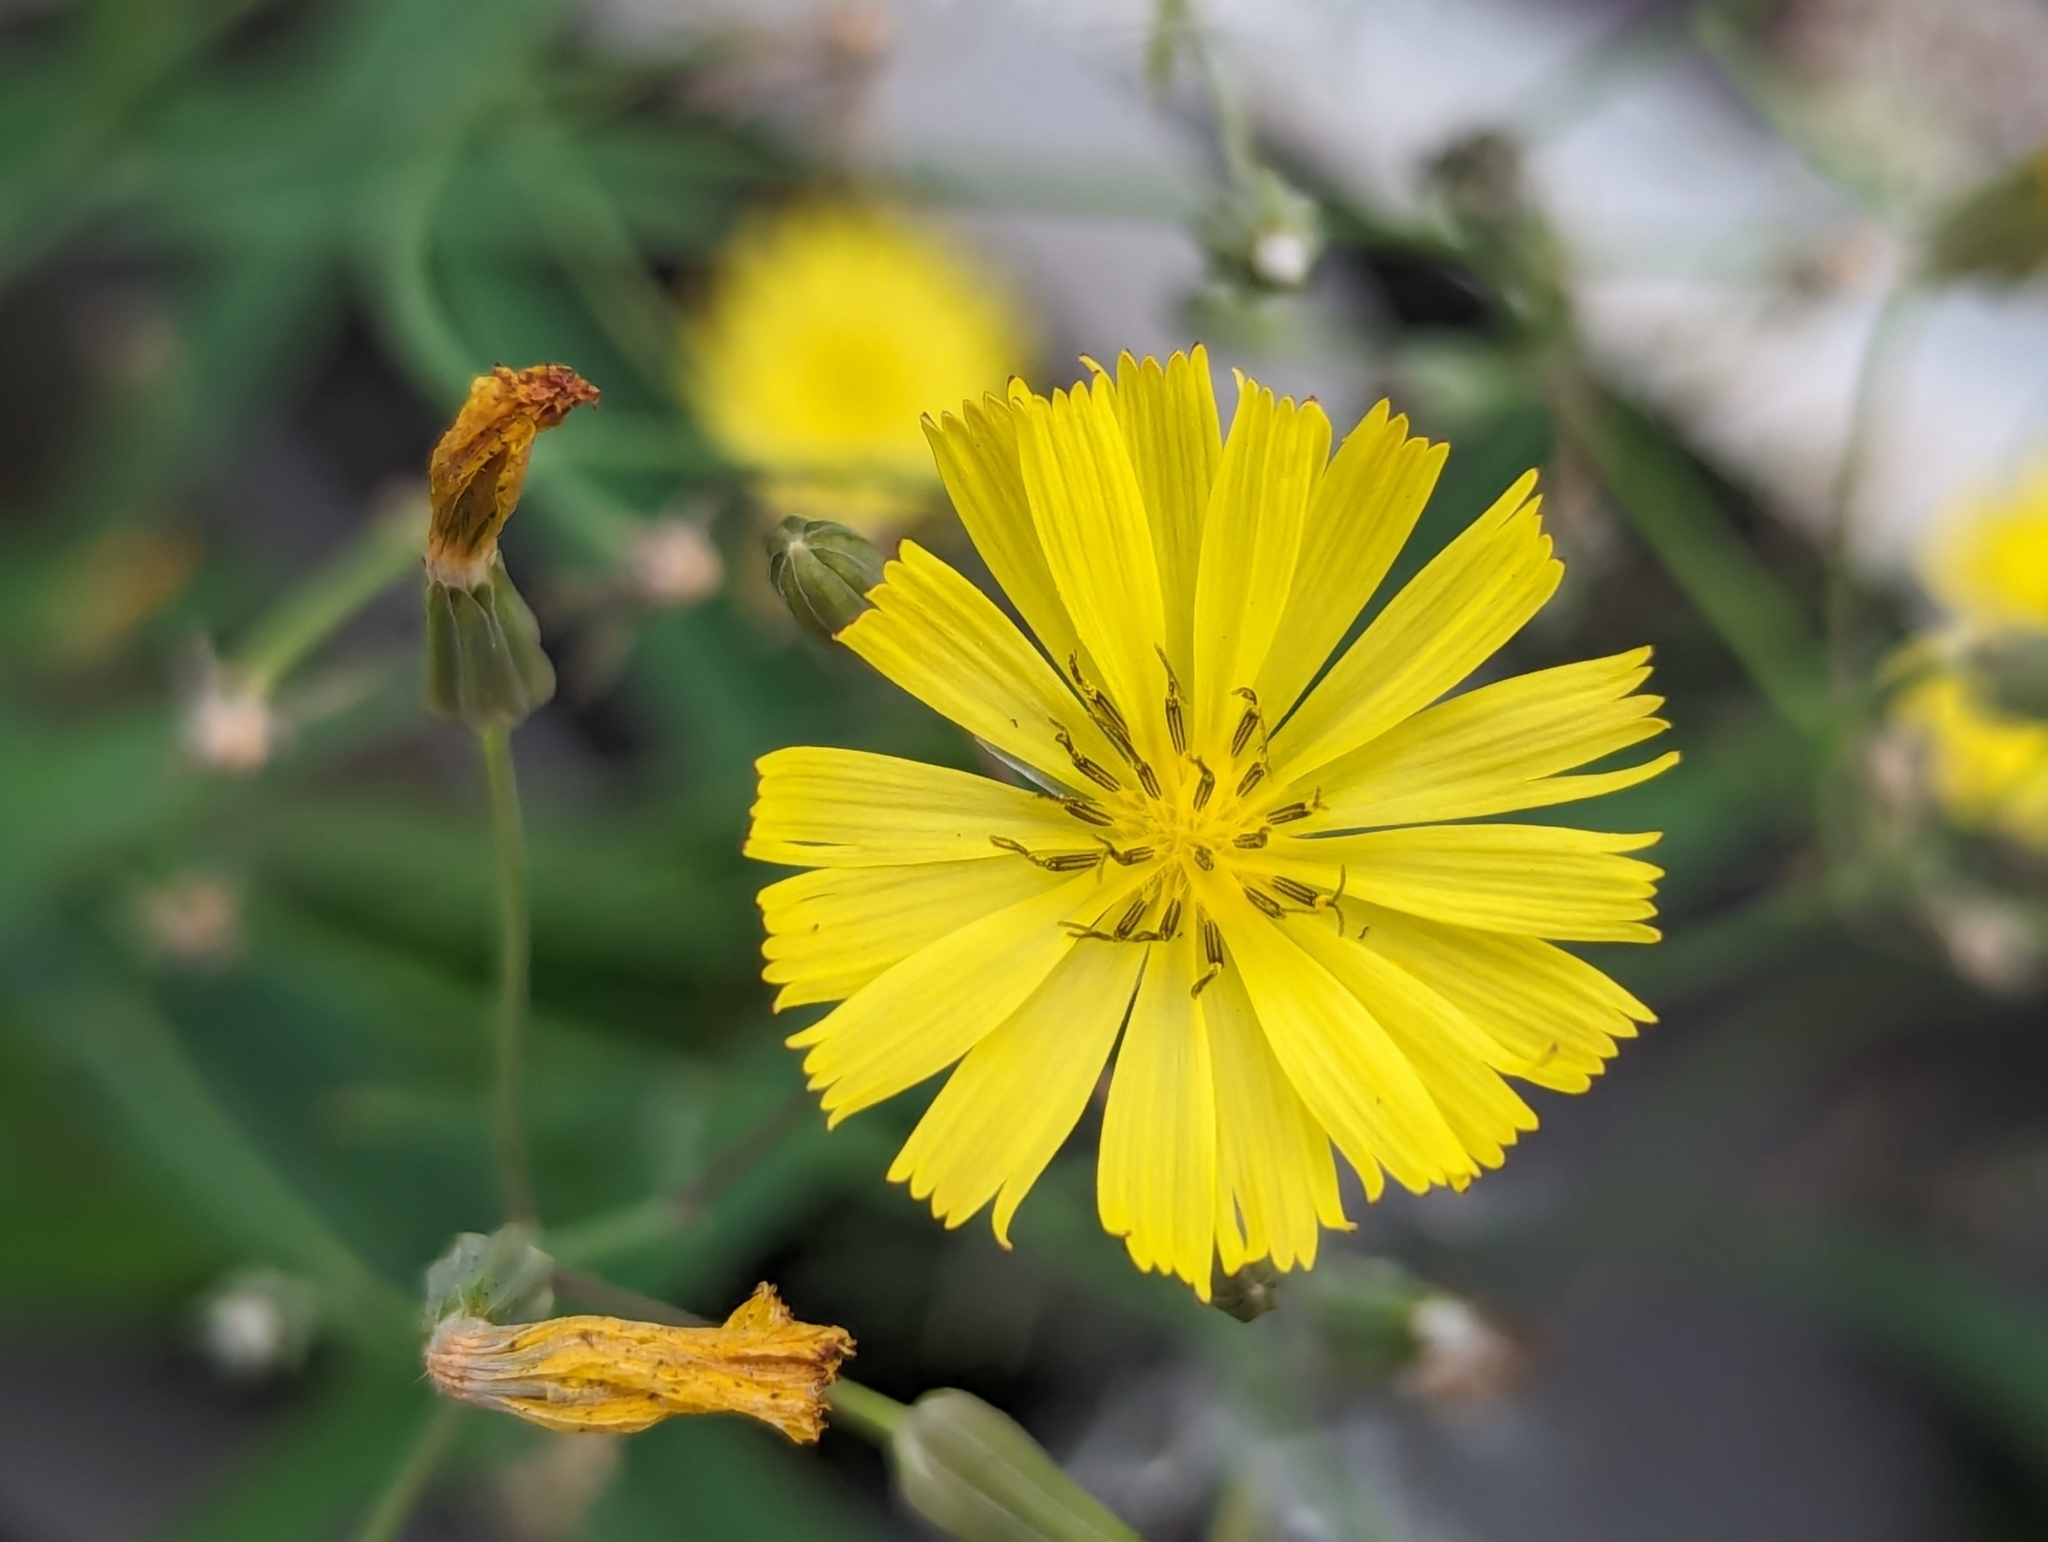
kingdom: Plantae
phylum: Tracheophyta
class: Magnoliopsida
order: Asterales
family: Asteraceae
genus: Ixeris
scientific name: Ixeris chinensis
